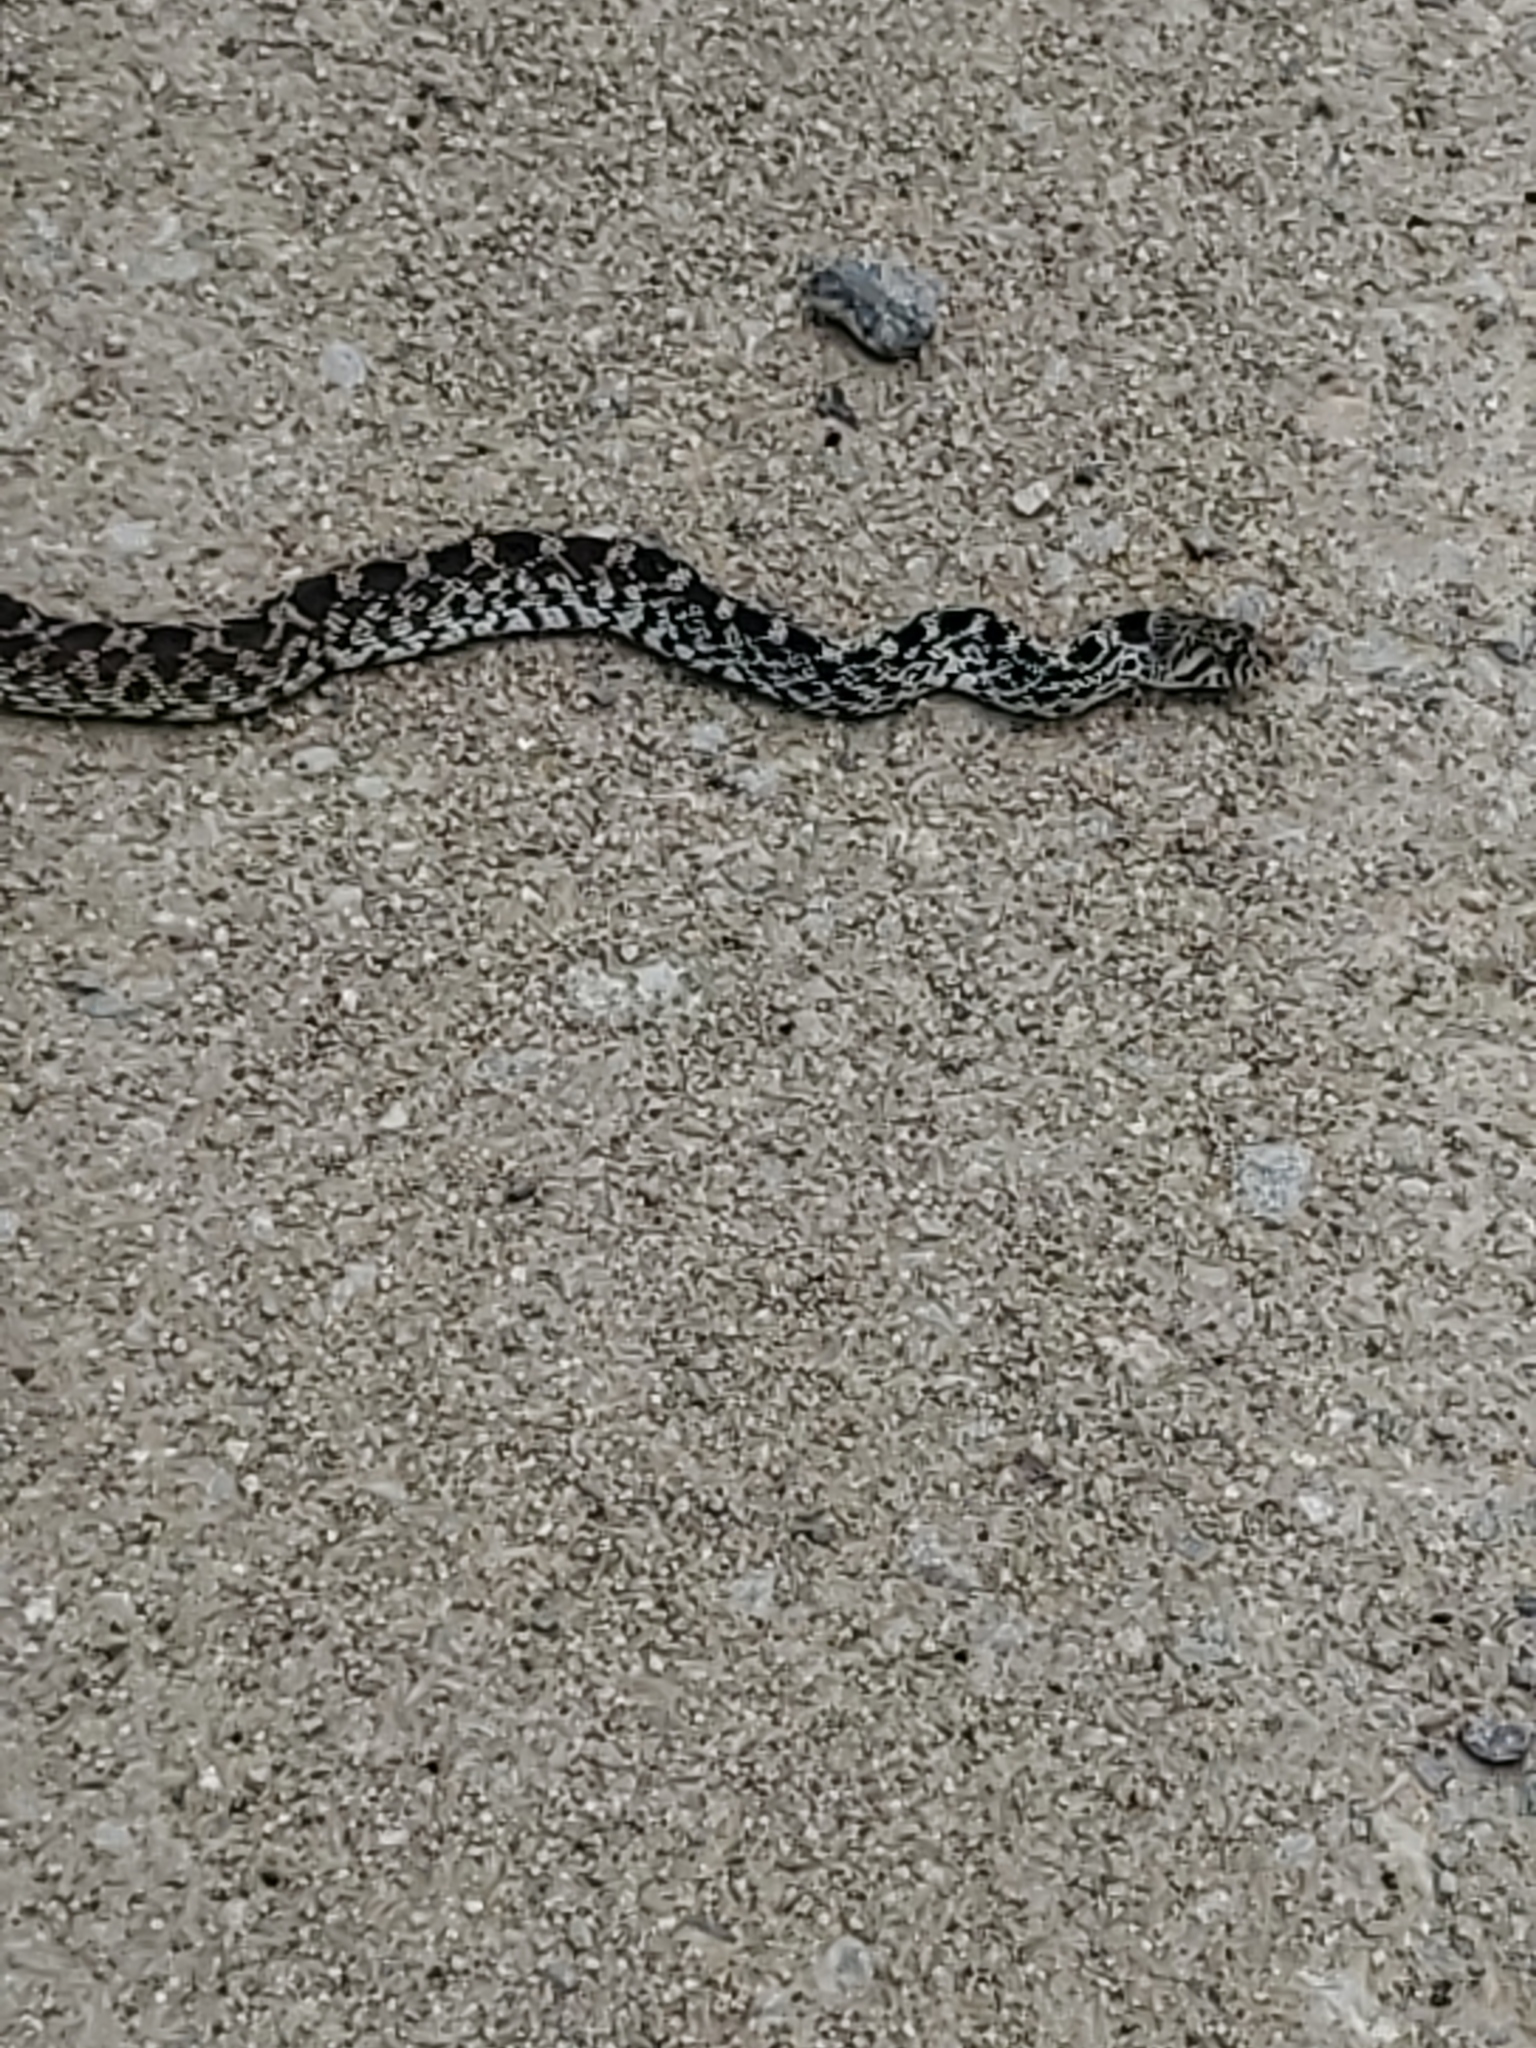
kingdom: Animalia
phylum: Chordata
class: Squamata
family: Colubridae
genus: Pituophis
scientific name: Pituophis catenifer
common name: Gopher snake
